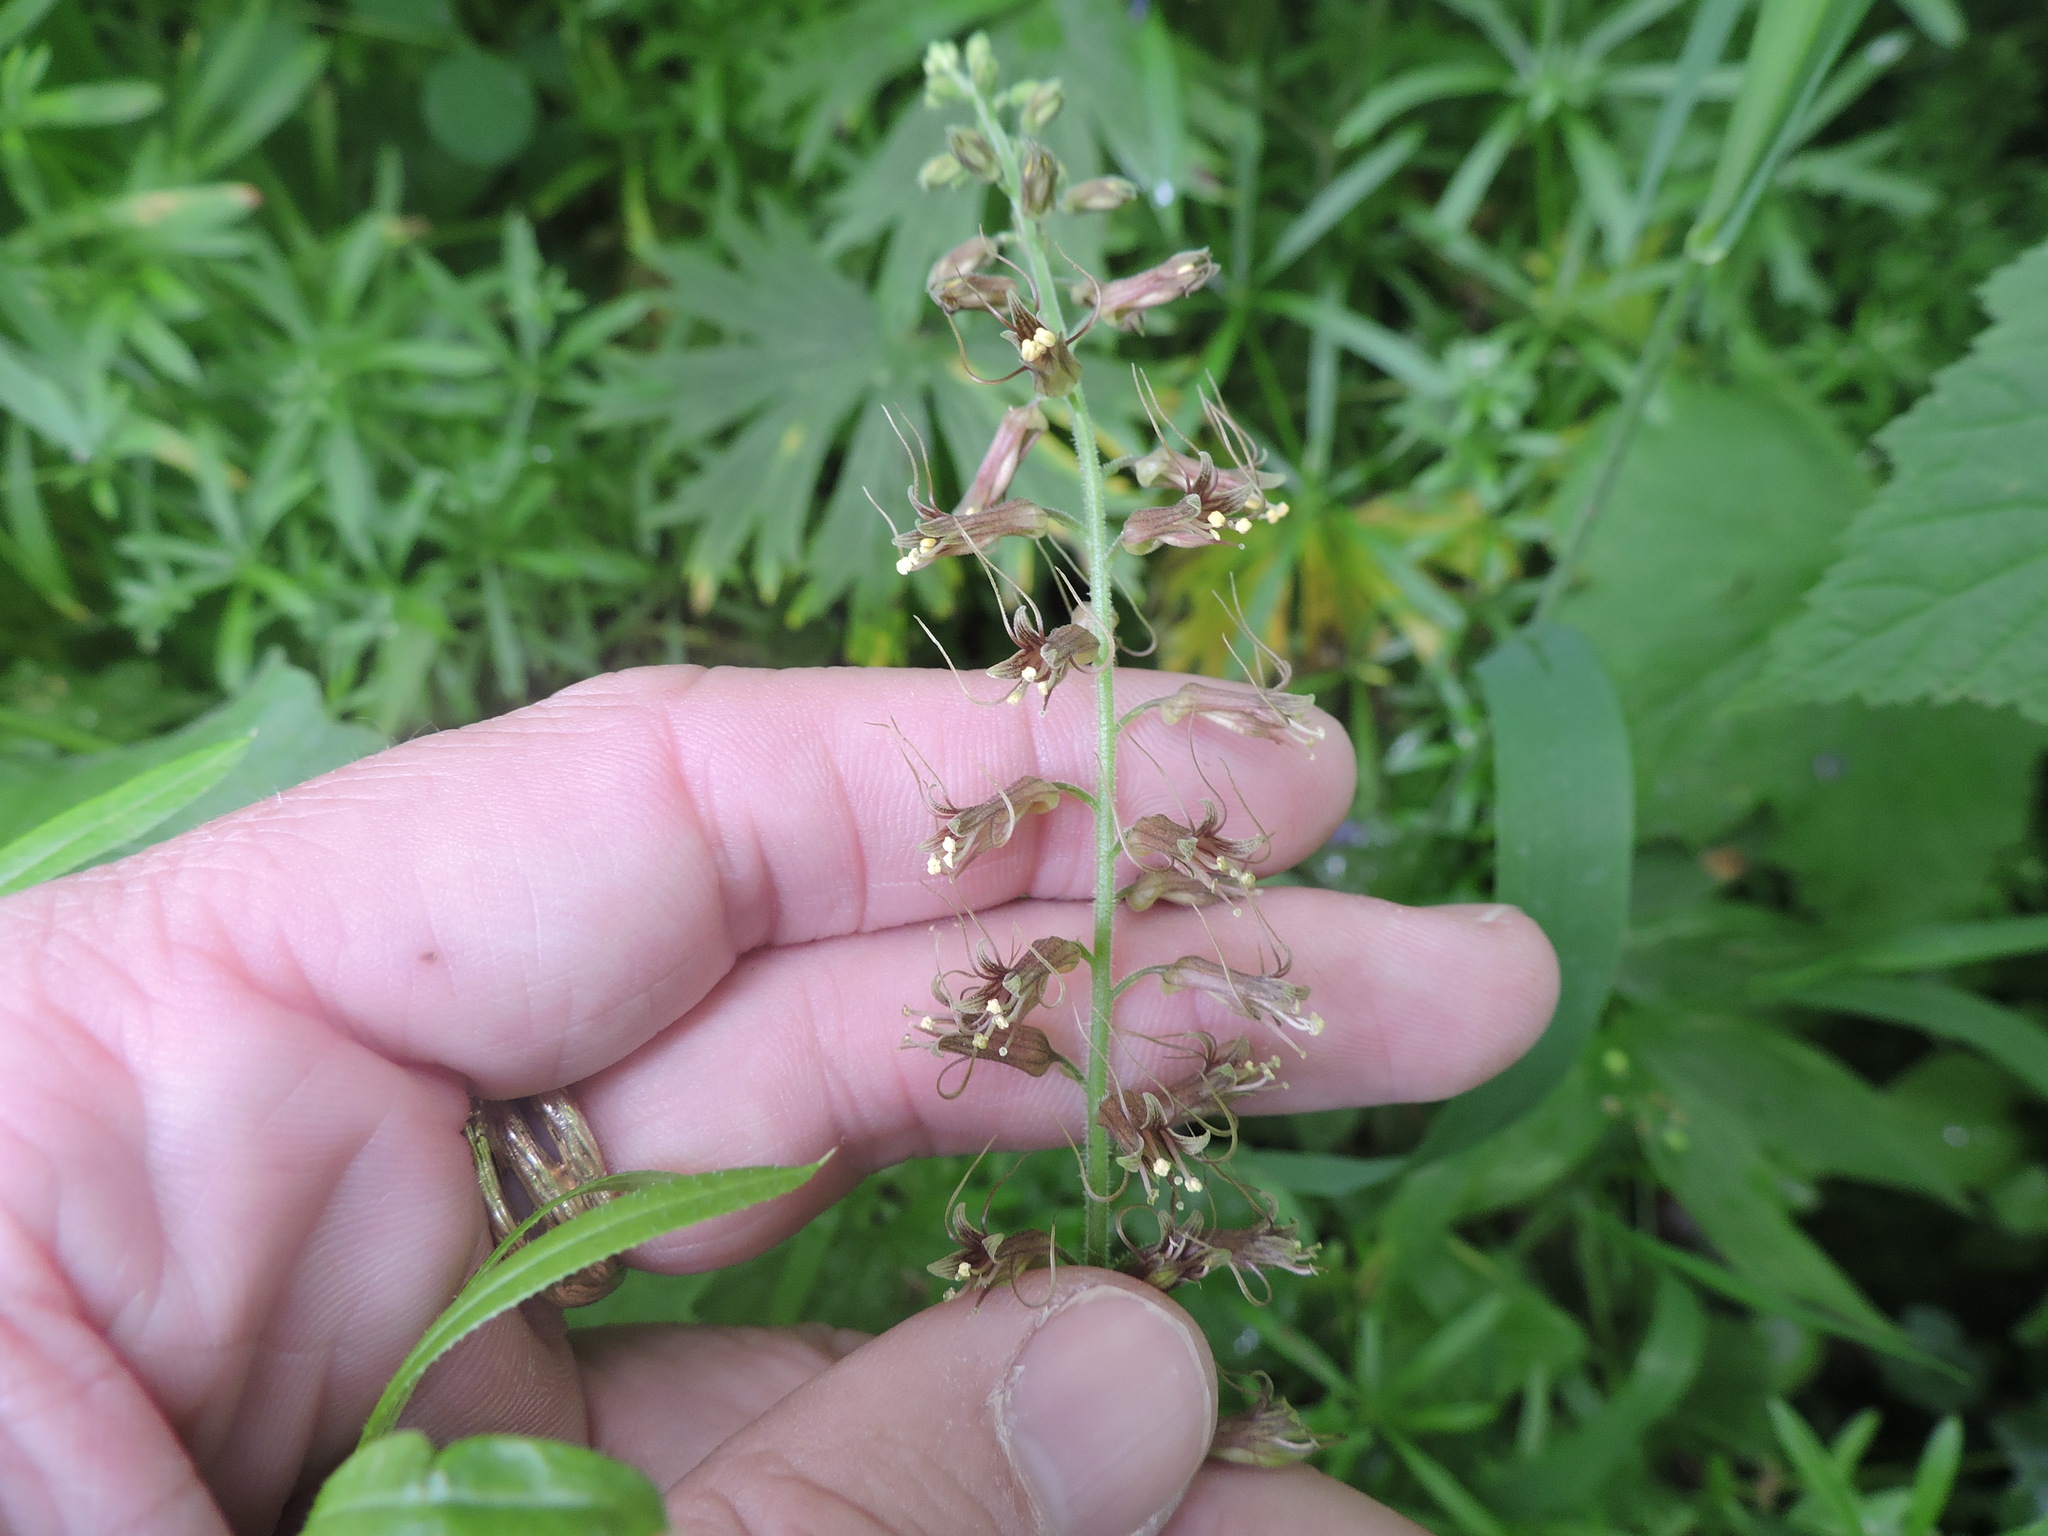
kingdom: Plantae
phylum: Tracheophyta
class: Magnoliopsida
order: Saxifragales
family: Saxifragaceae
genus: Tolmiea
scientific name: Tolmiea menziesii
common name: Pick-a-back-plant
